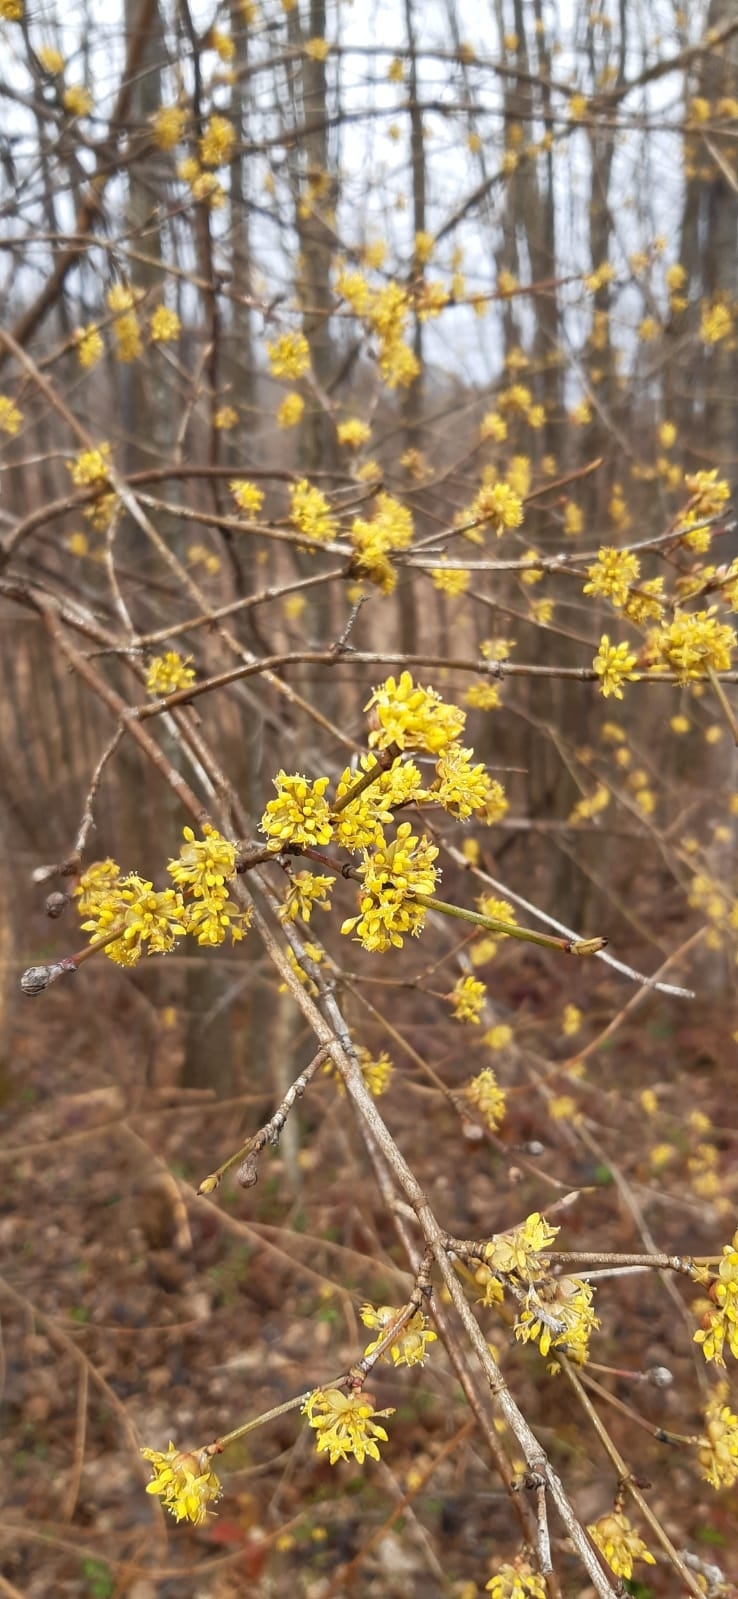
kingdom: Plantae
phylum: Tracheophyta
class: Magnoliopsida
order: Cornales
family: Cornaceae
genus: Cornus
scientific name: Cornus mas
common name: Cornelian-cherry
